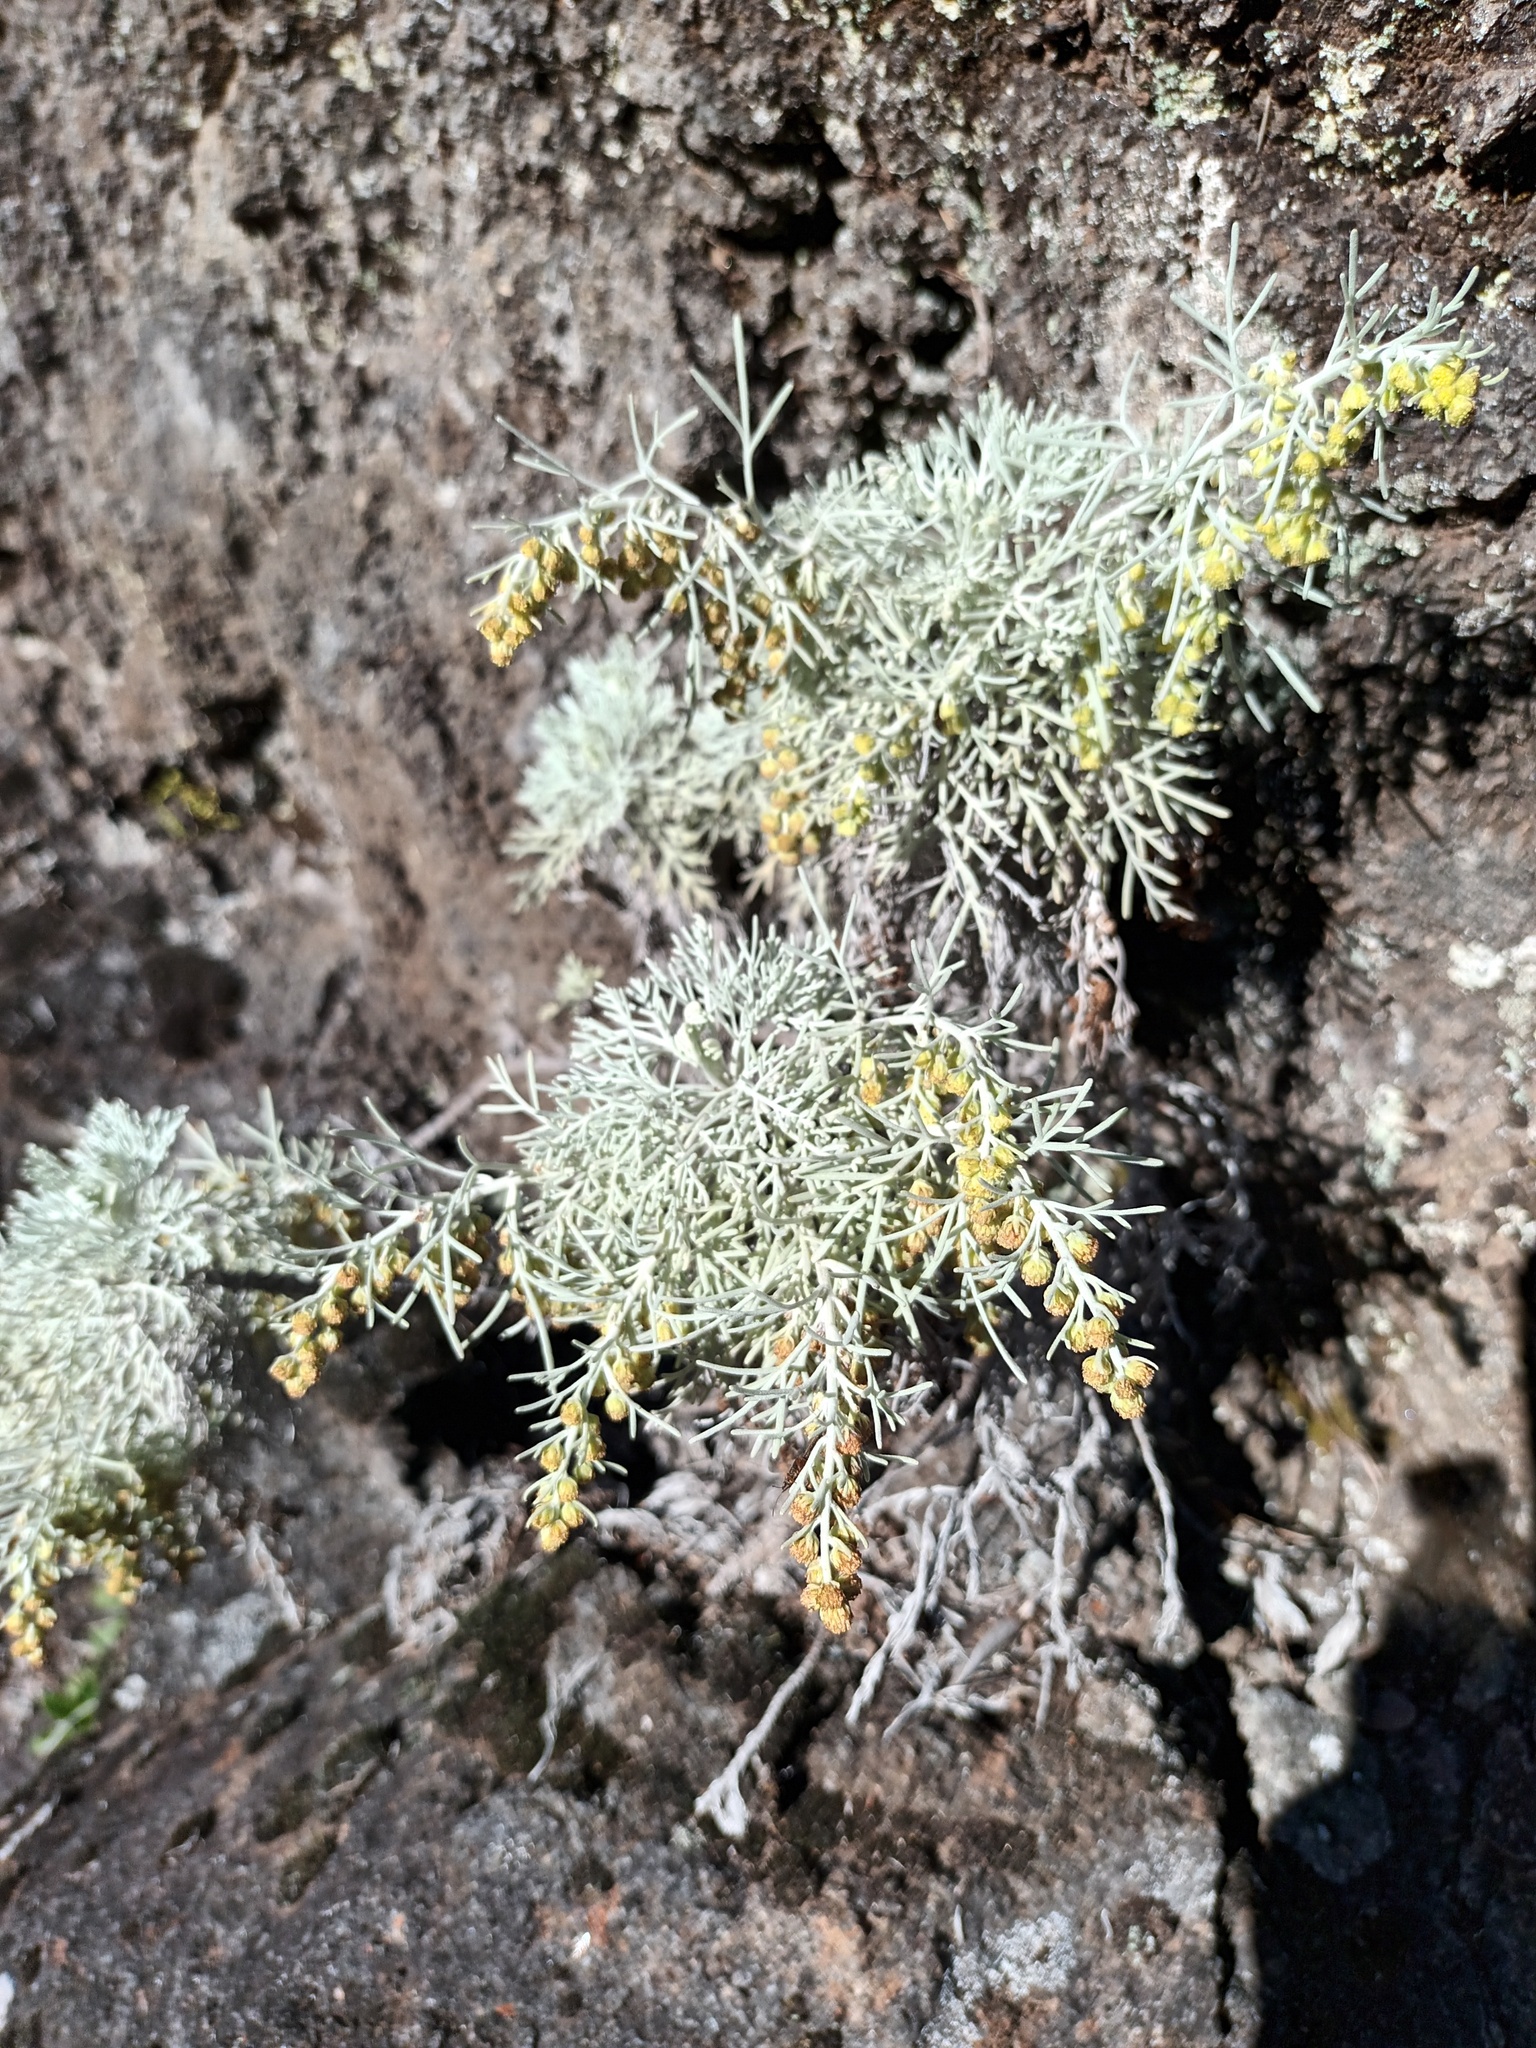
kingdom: Plantae
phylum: Tracheophyta
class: Magnoliopsida
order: Asterales
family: Asteraceae
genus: Artemisia
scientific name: Artemisia mauiensis
